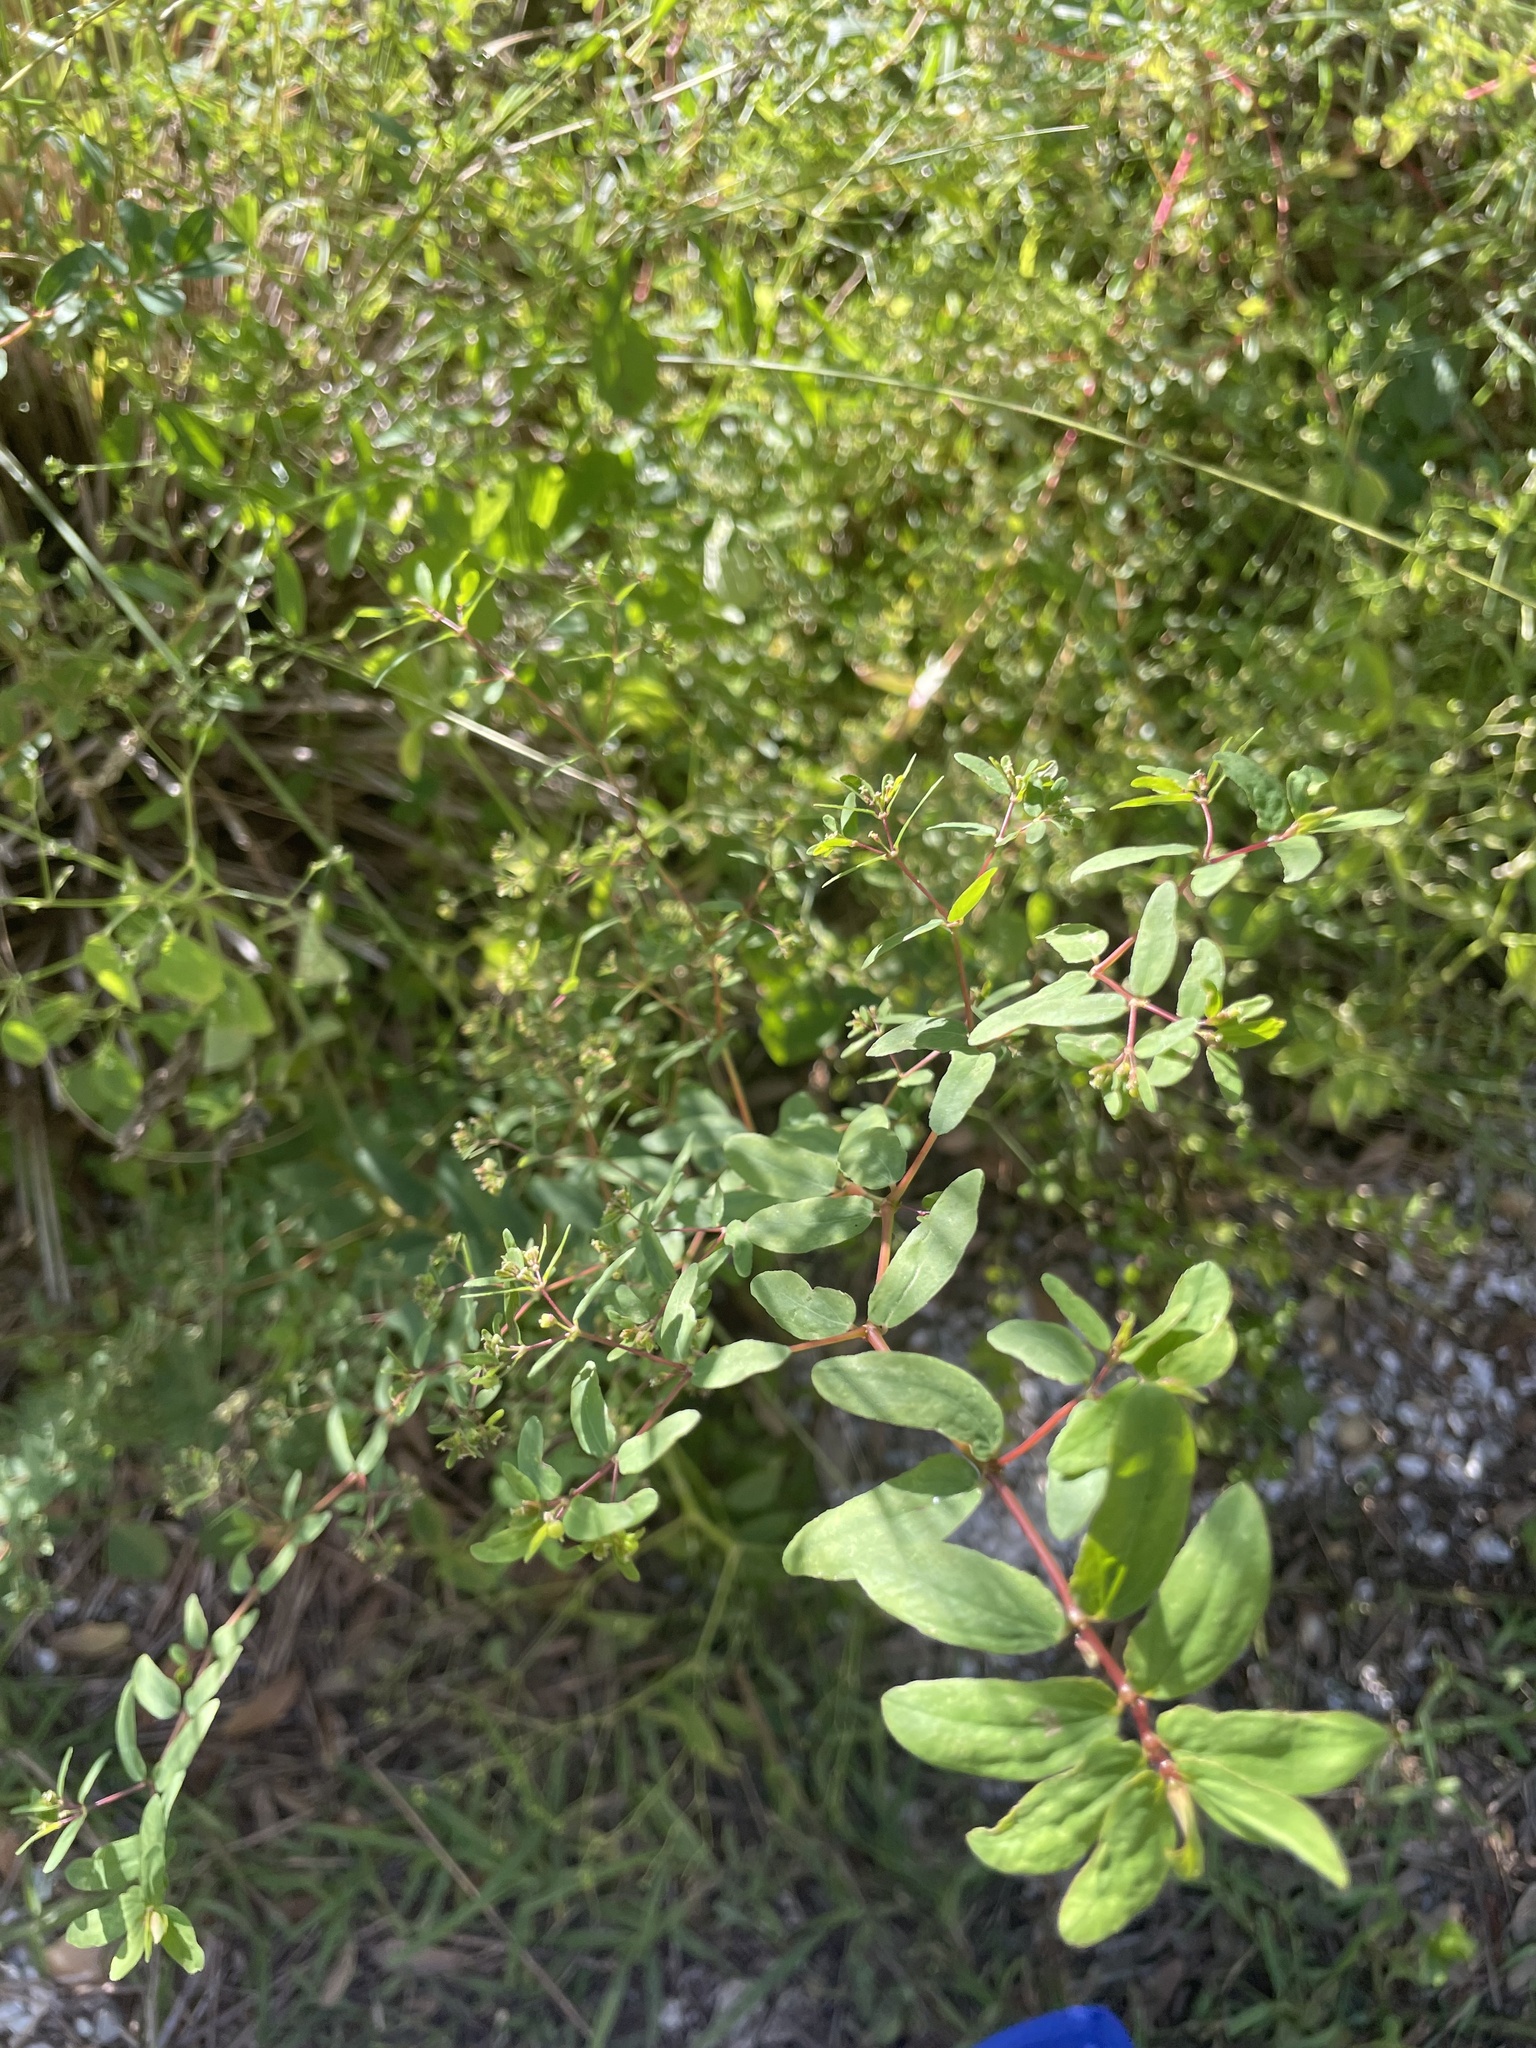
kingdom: Plantae
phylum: Tracheophyta
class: Magnoliopsida
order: Malpighiales
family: Euphorbiaceae
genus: Euphorbia
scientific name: Euphorbia hyssopifolia
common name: Hyssopleaf sandmat
